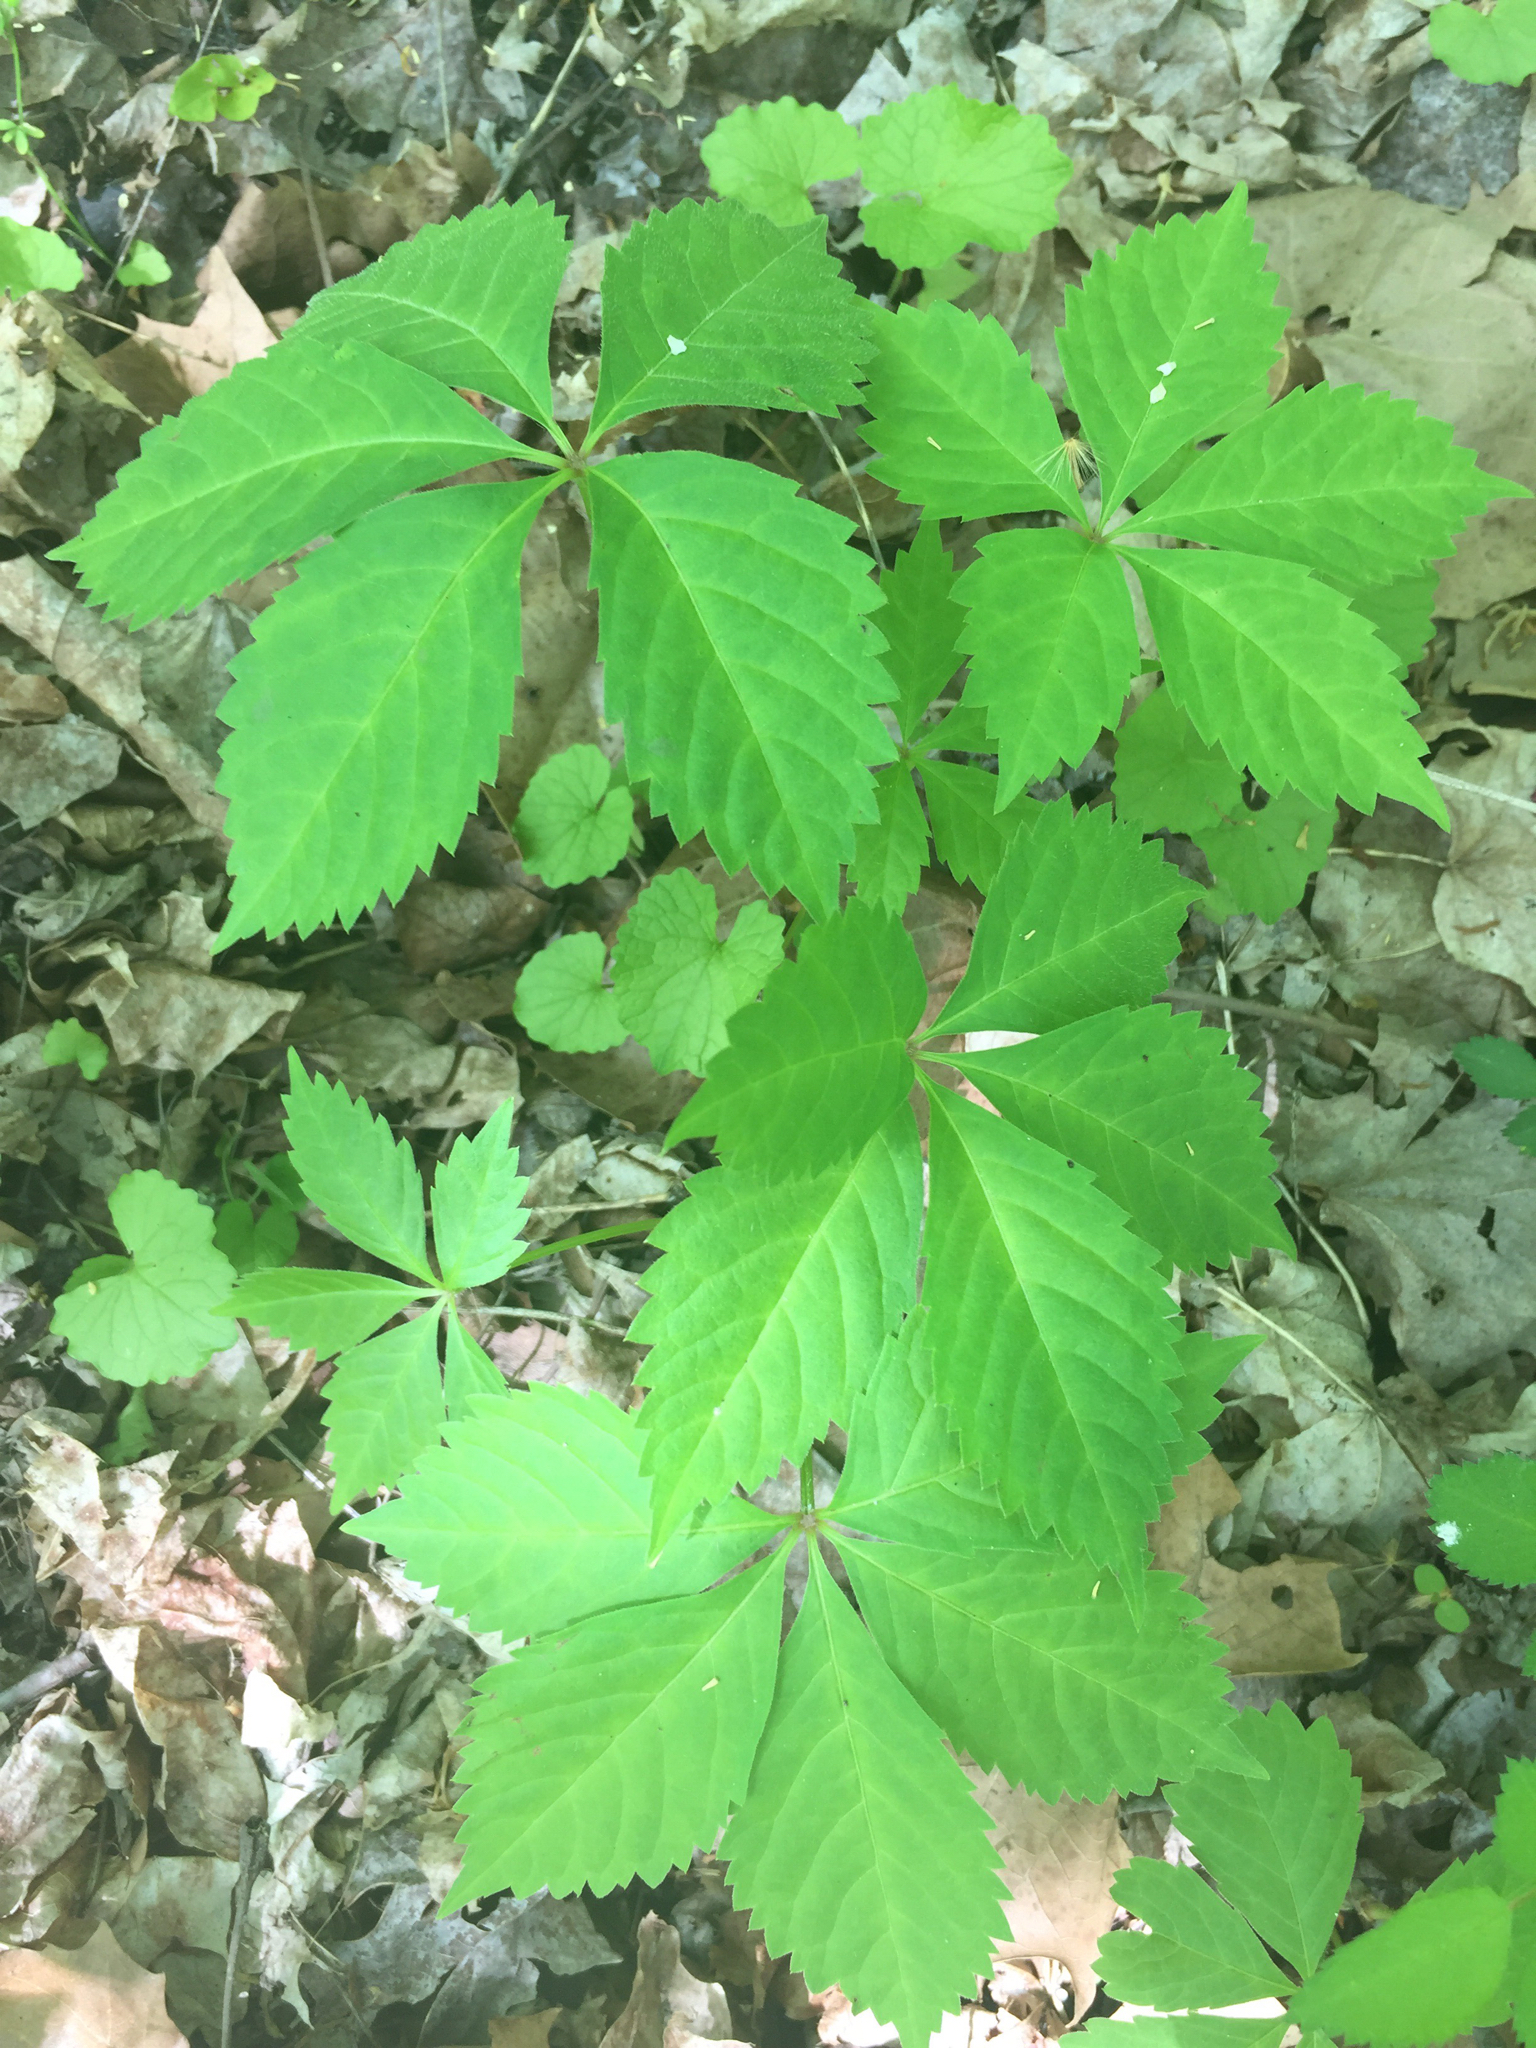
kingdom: Plantae
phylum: Tracheophyta
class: Magnoliopsida
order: Vitales
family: Vitaceae
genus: Parthenocissus
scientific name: Parthenocissus quinquefolia
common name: Virginia-creeper
